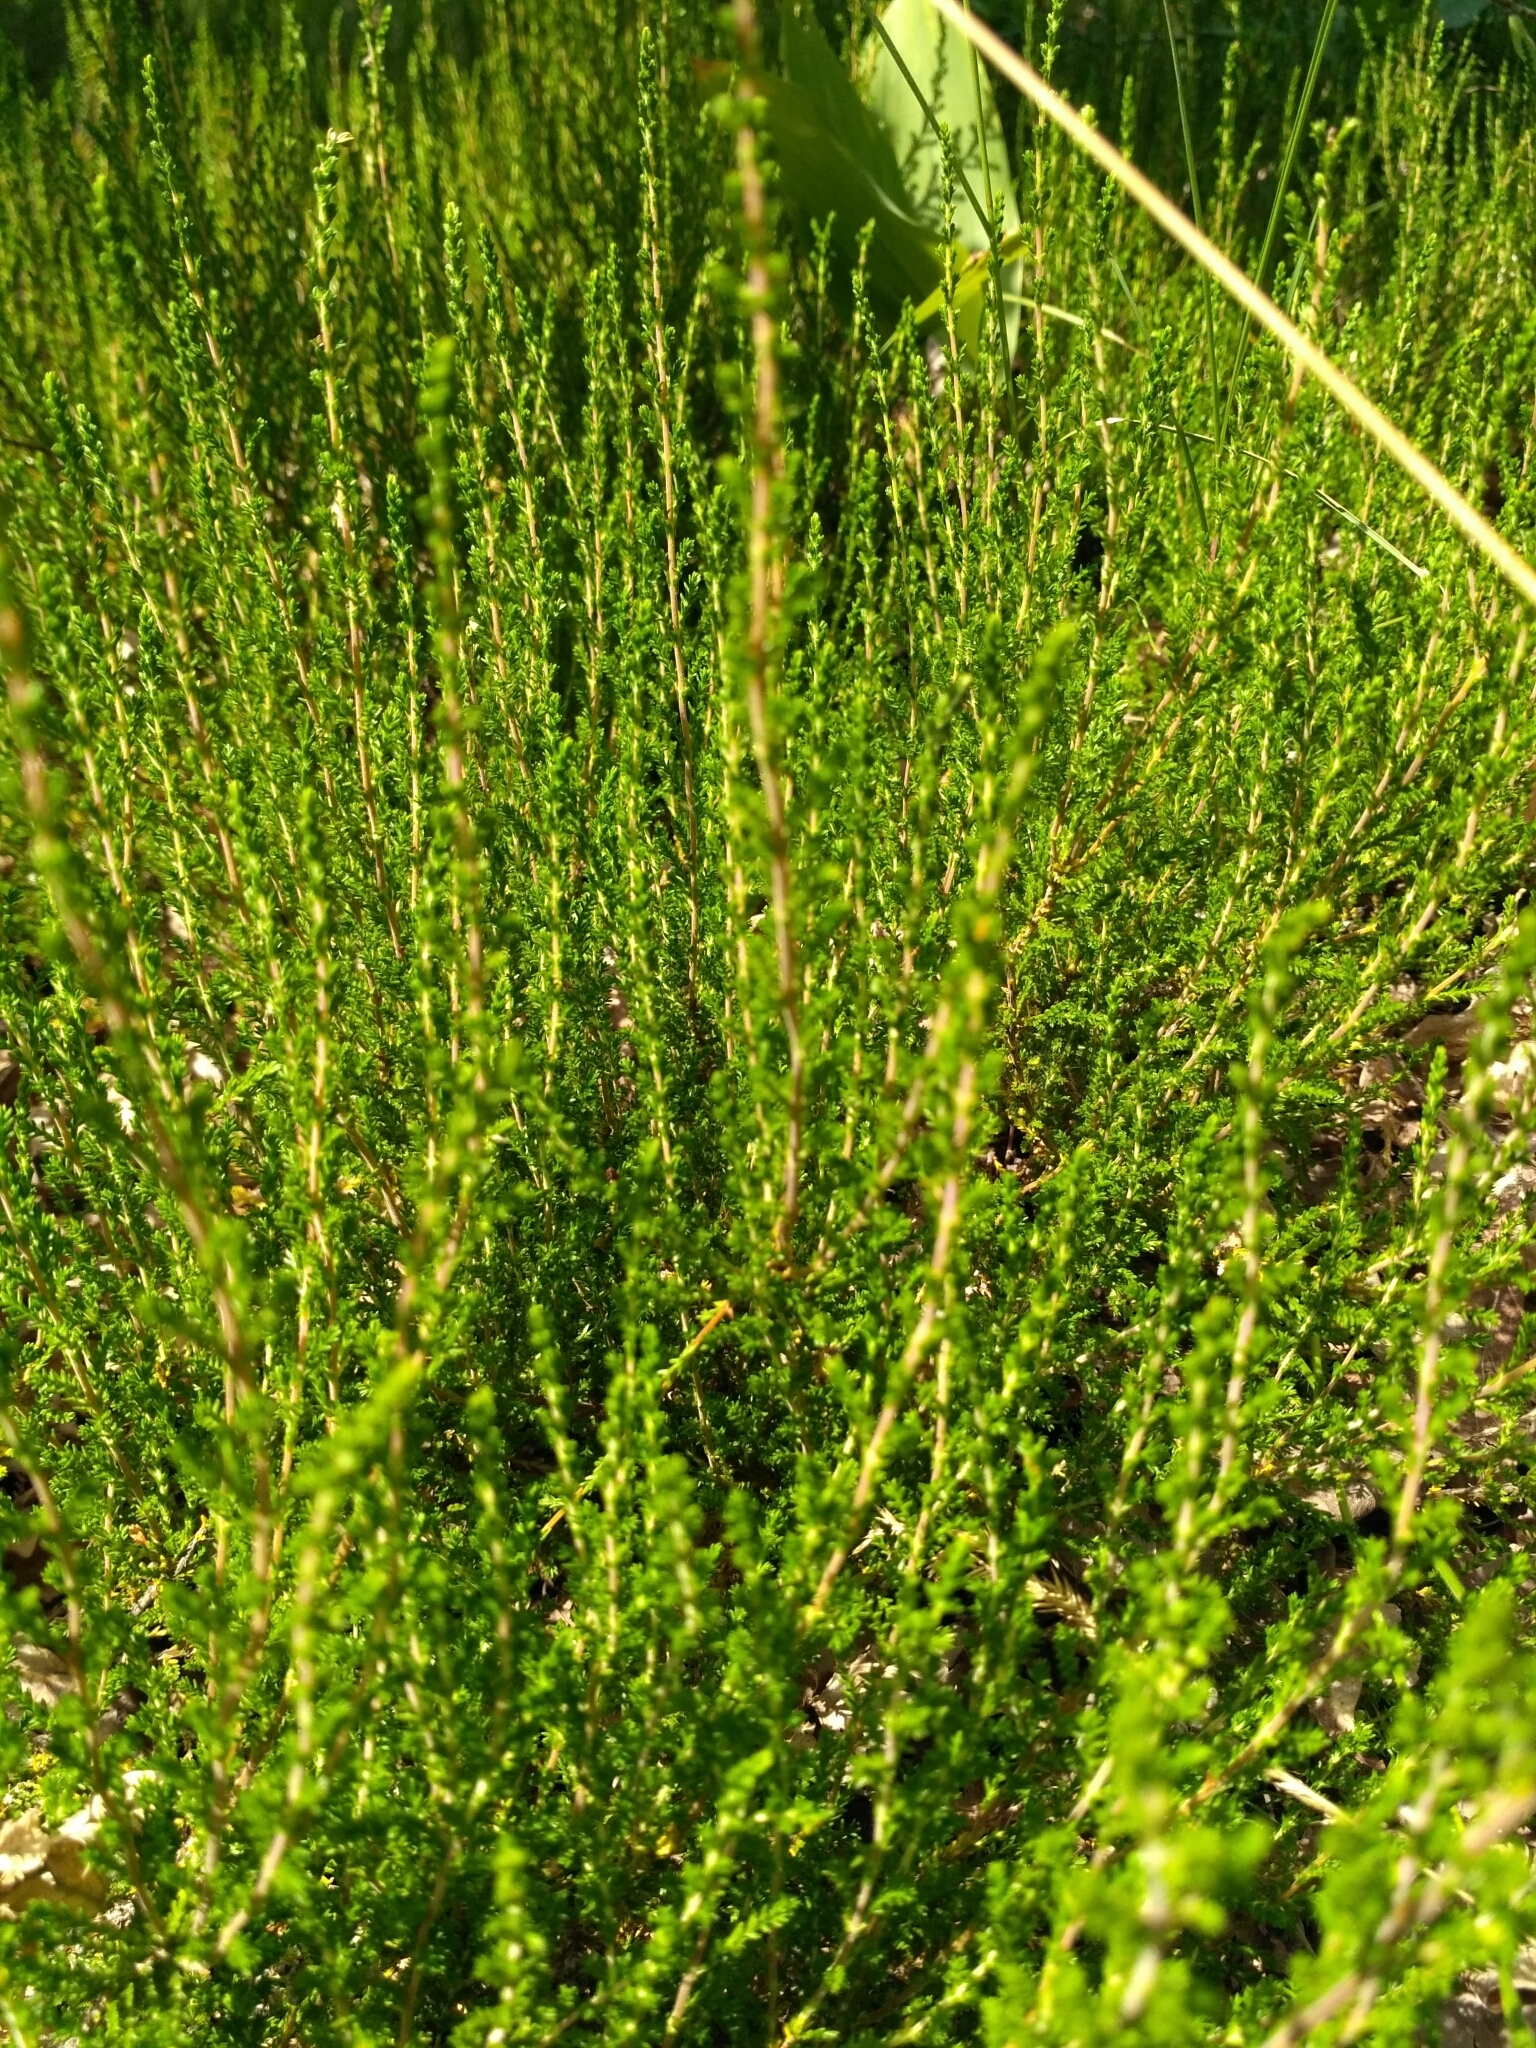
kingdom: Plantae
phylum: Tracheophyta
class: Magnoliopsida
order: Ericales
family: Ericaceae
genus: Calluna
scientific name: Calluna vulgaris
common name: Heather
